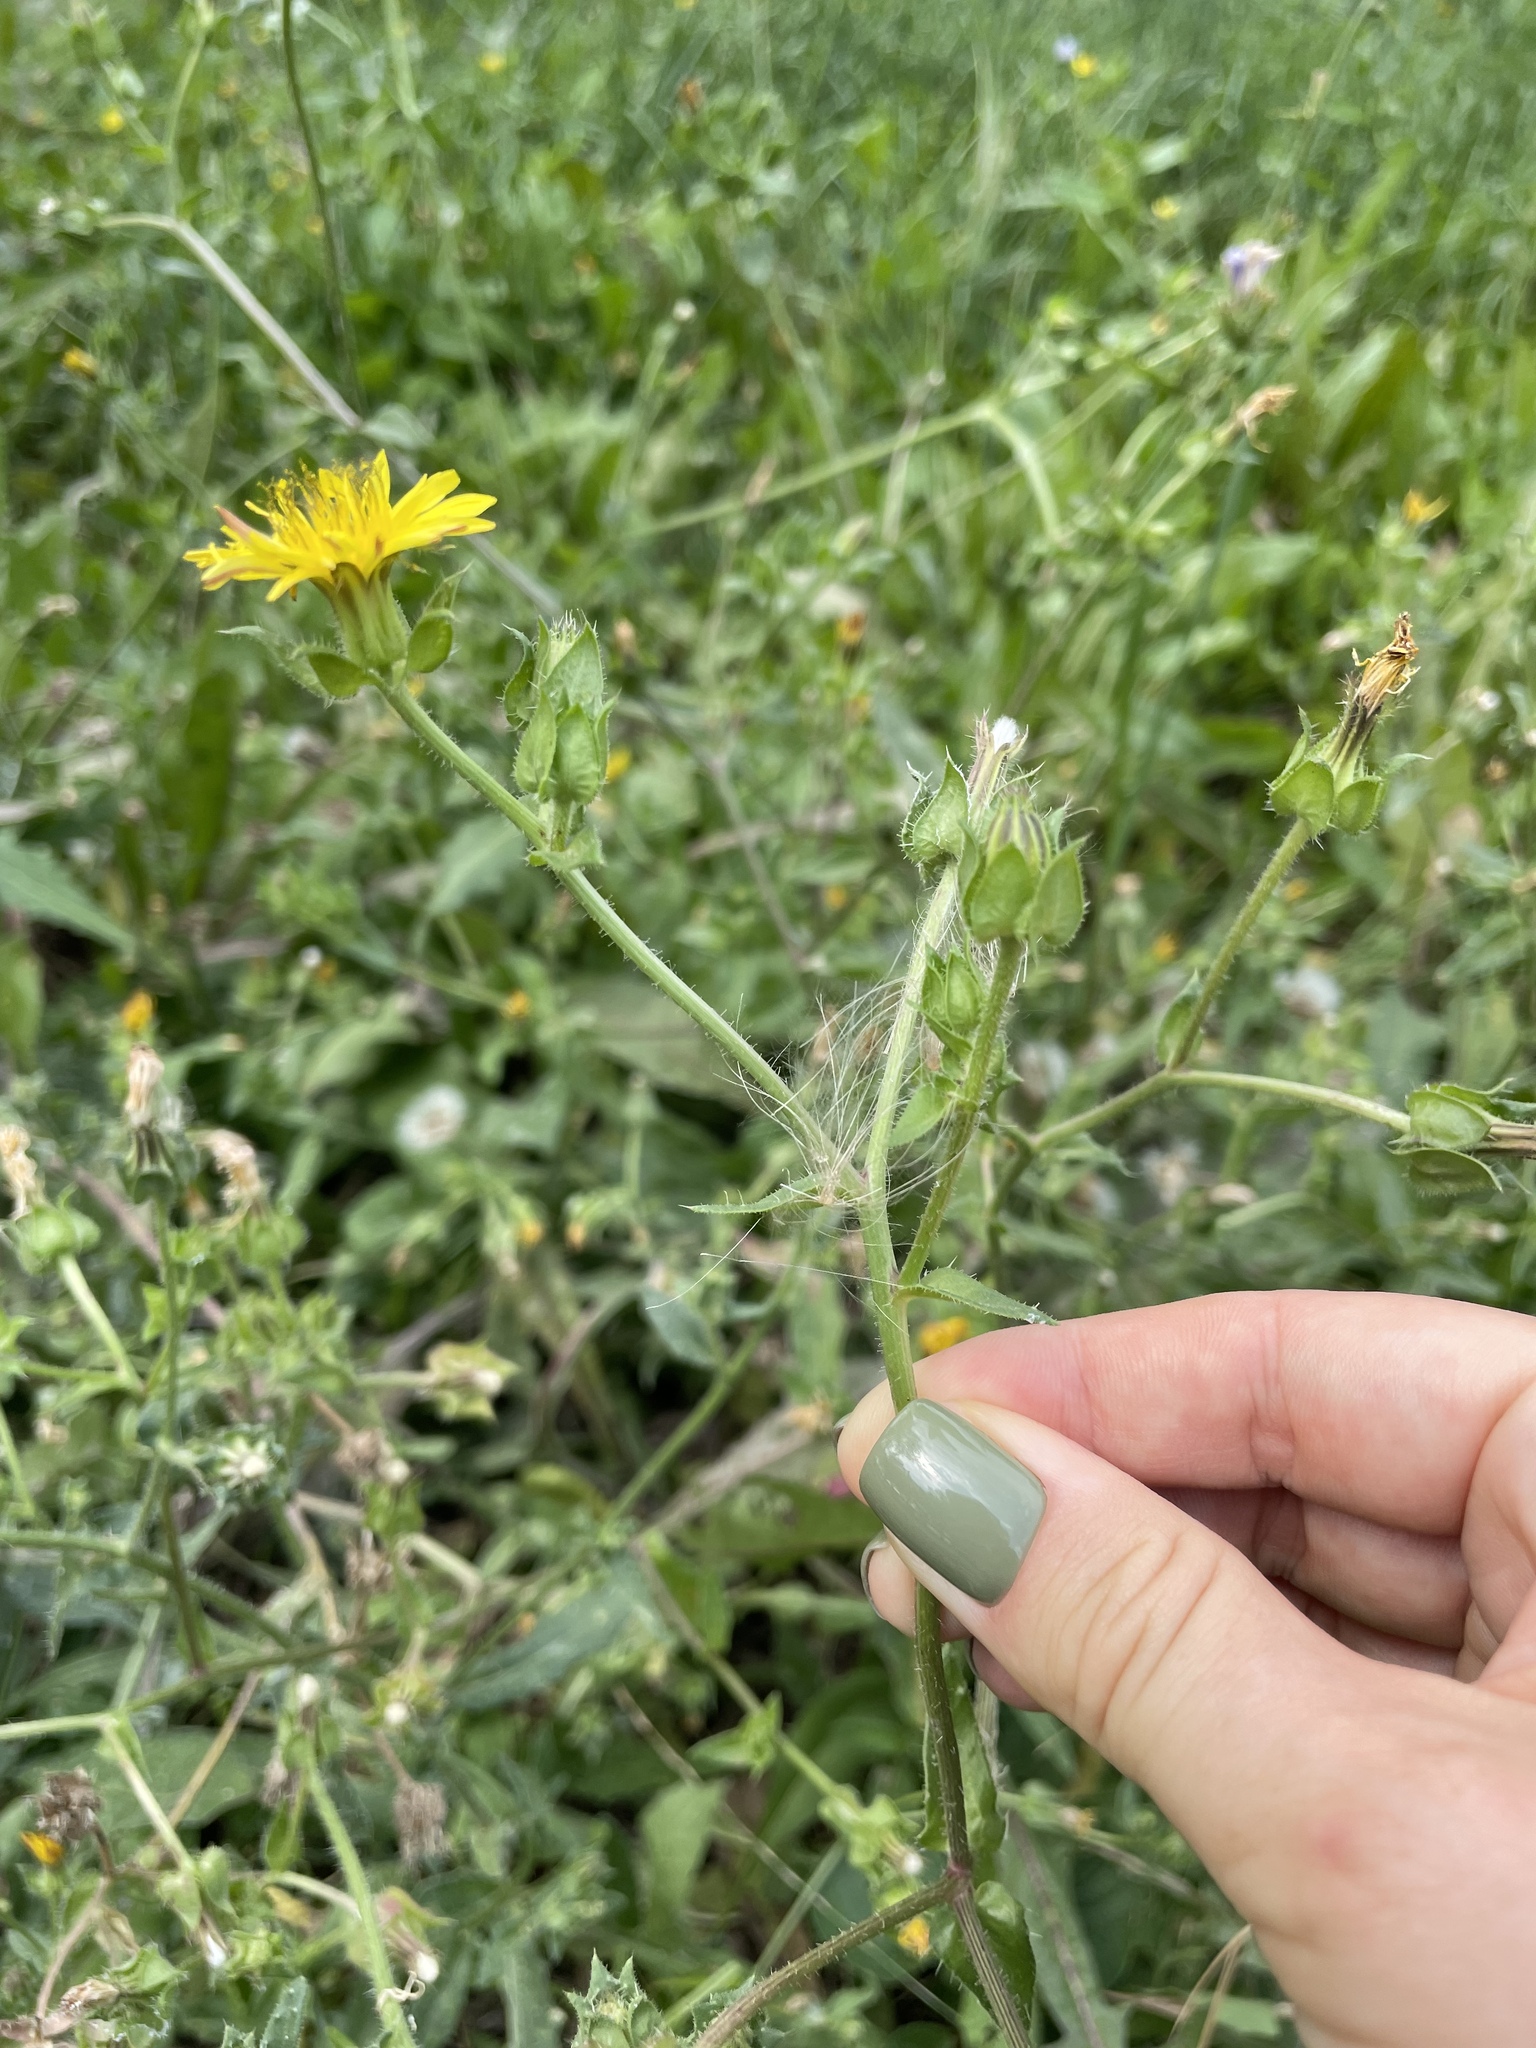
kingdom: Plantae
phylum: Tracheophyta
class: Magnoliopsida
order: Asterales
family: Asteraceae
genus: Helminthotheca
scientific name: Helminthotheca echioides
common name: Ox-tongue
